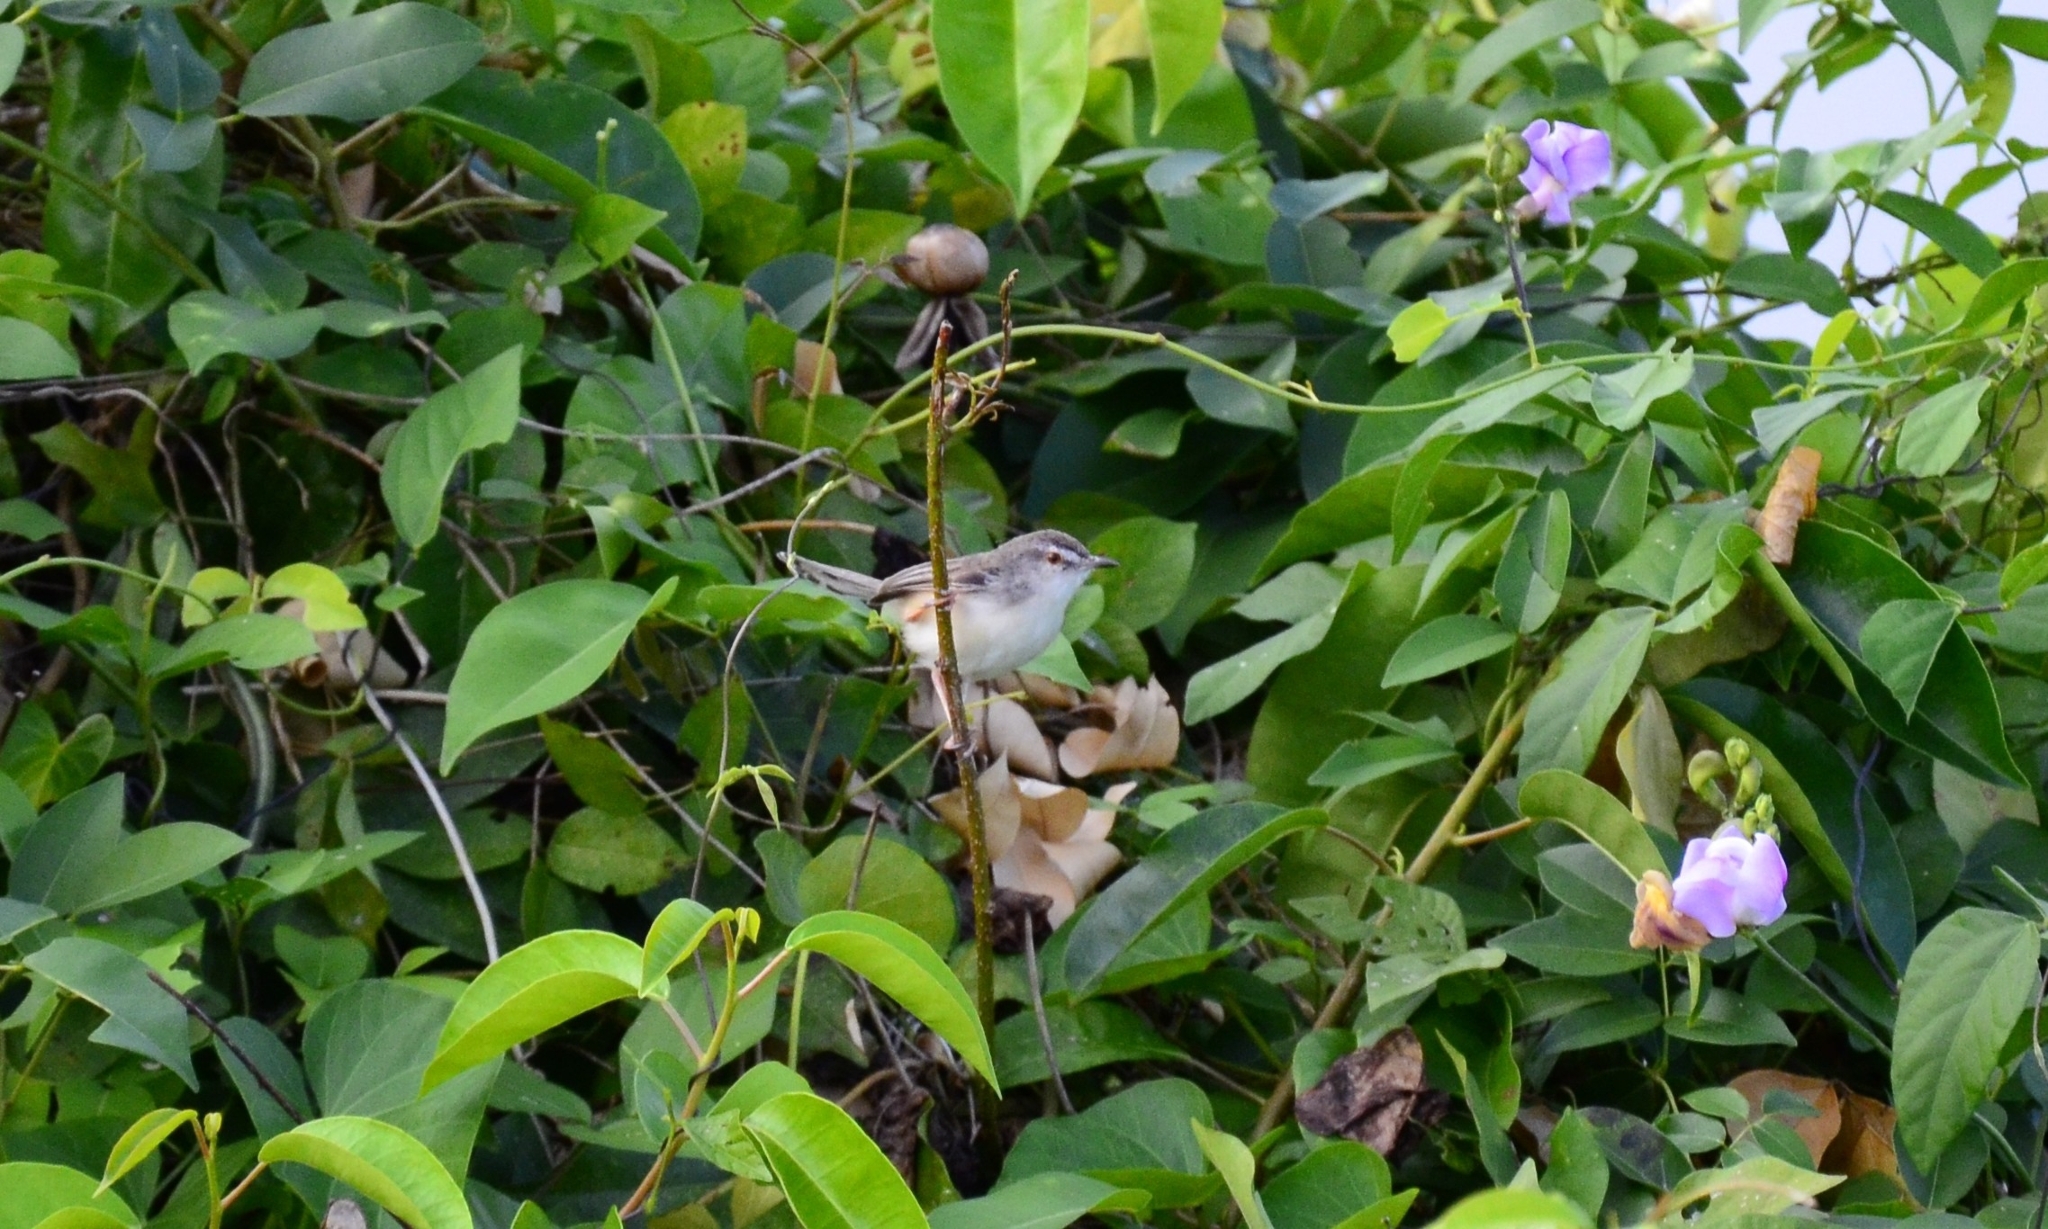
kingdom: Animalia
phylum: Chordata
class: Aves
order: Passeriformes
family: Cisticolidae
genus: Prinia
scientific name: Prinia inornata
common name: Plain prinia
